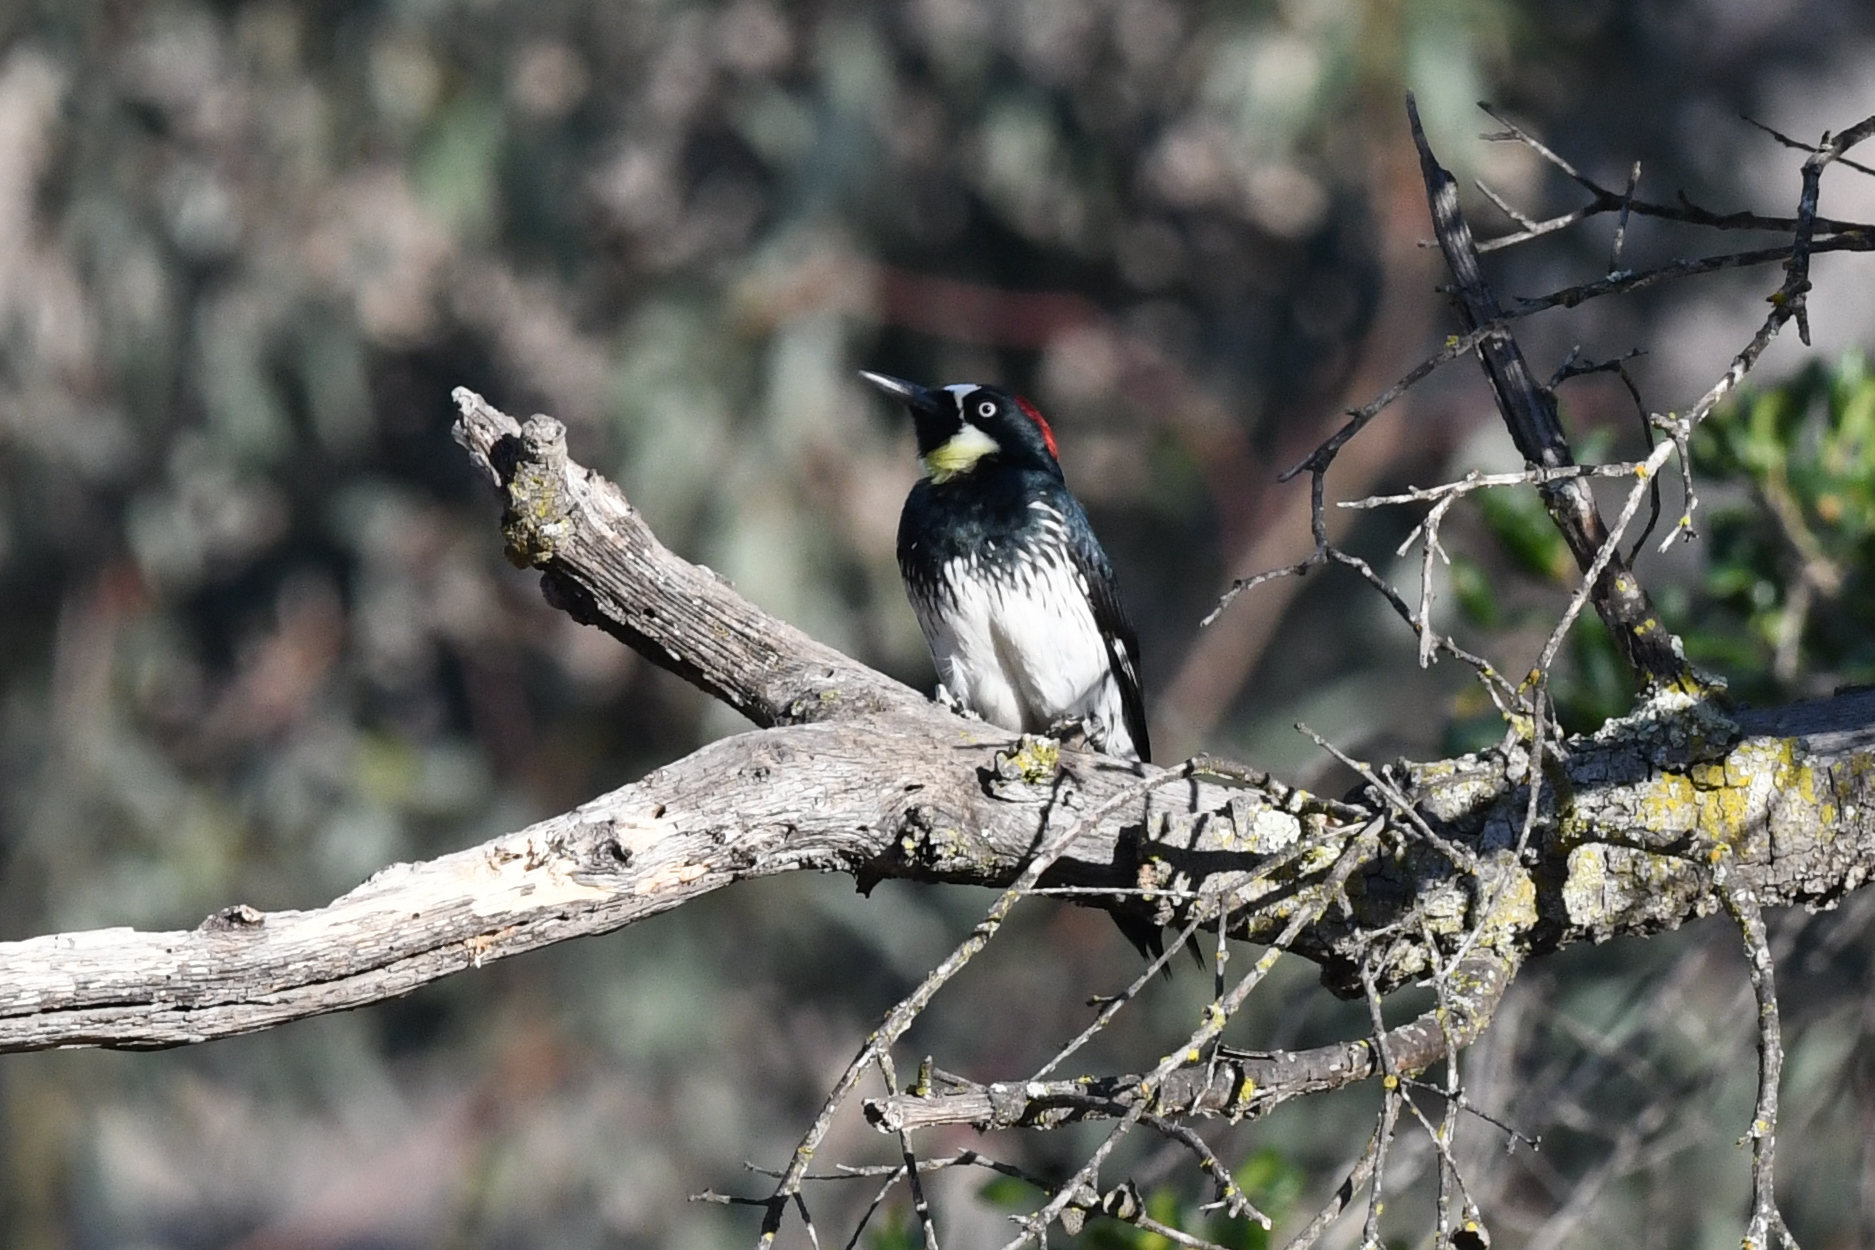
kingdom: Animalia
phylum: Chordata
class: Aves
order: Piciformes
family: Picidae
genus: Melanerpes
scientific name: Melanerpes formicivorus
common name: Acorn woodpecker
